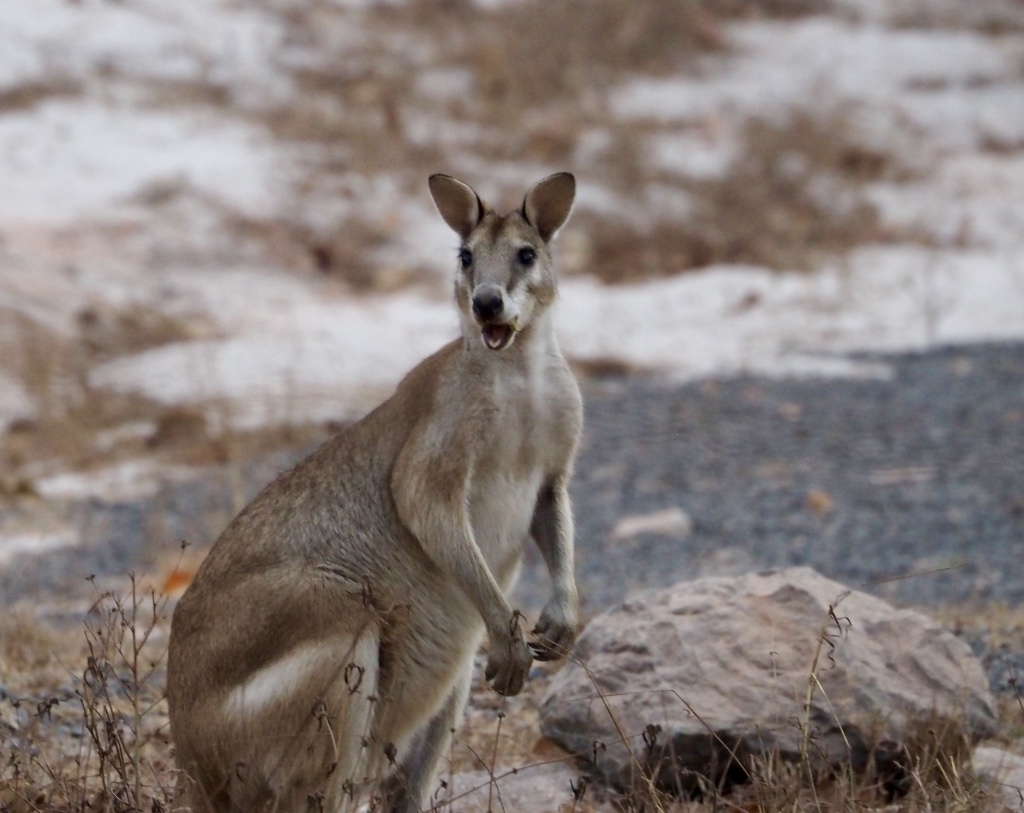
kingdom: Animalia
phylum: Chordata
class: Mammalia
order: Diprotodontia
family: Macropodidae
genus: Macropus
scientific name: Macropus agilis
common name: Agile wallaby
